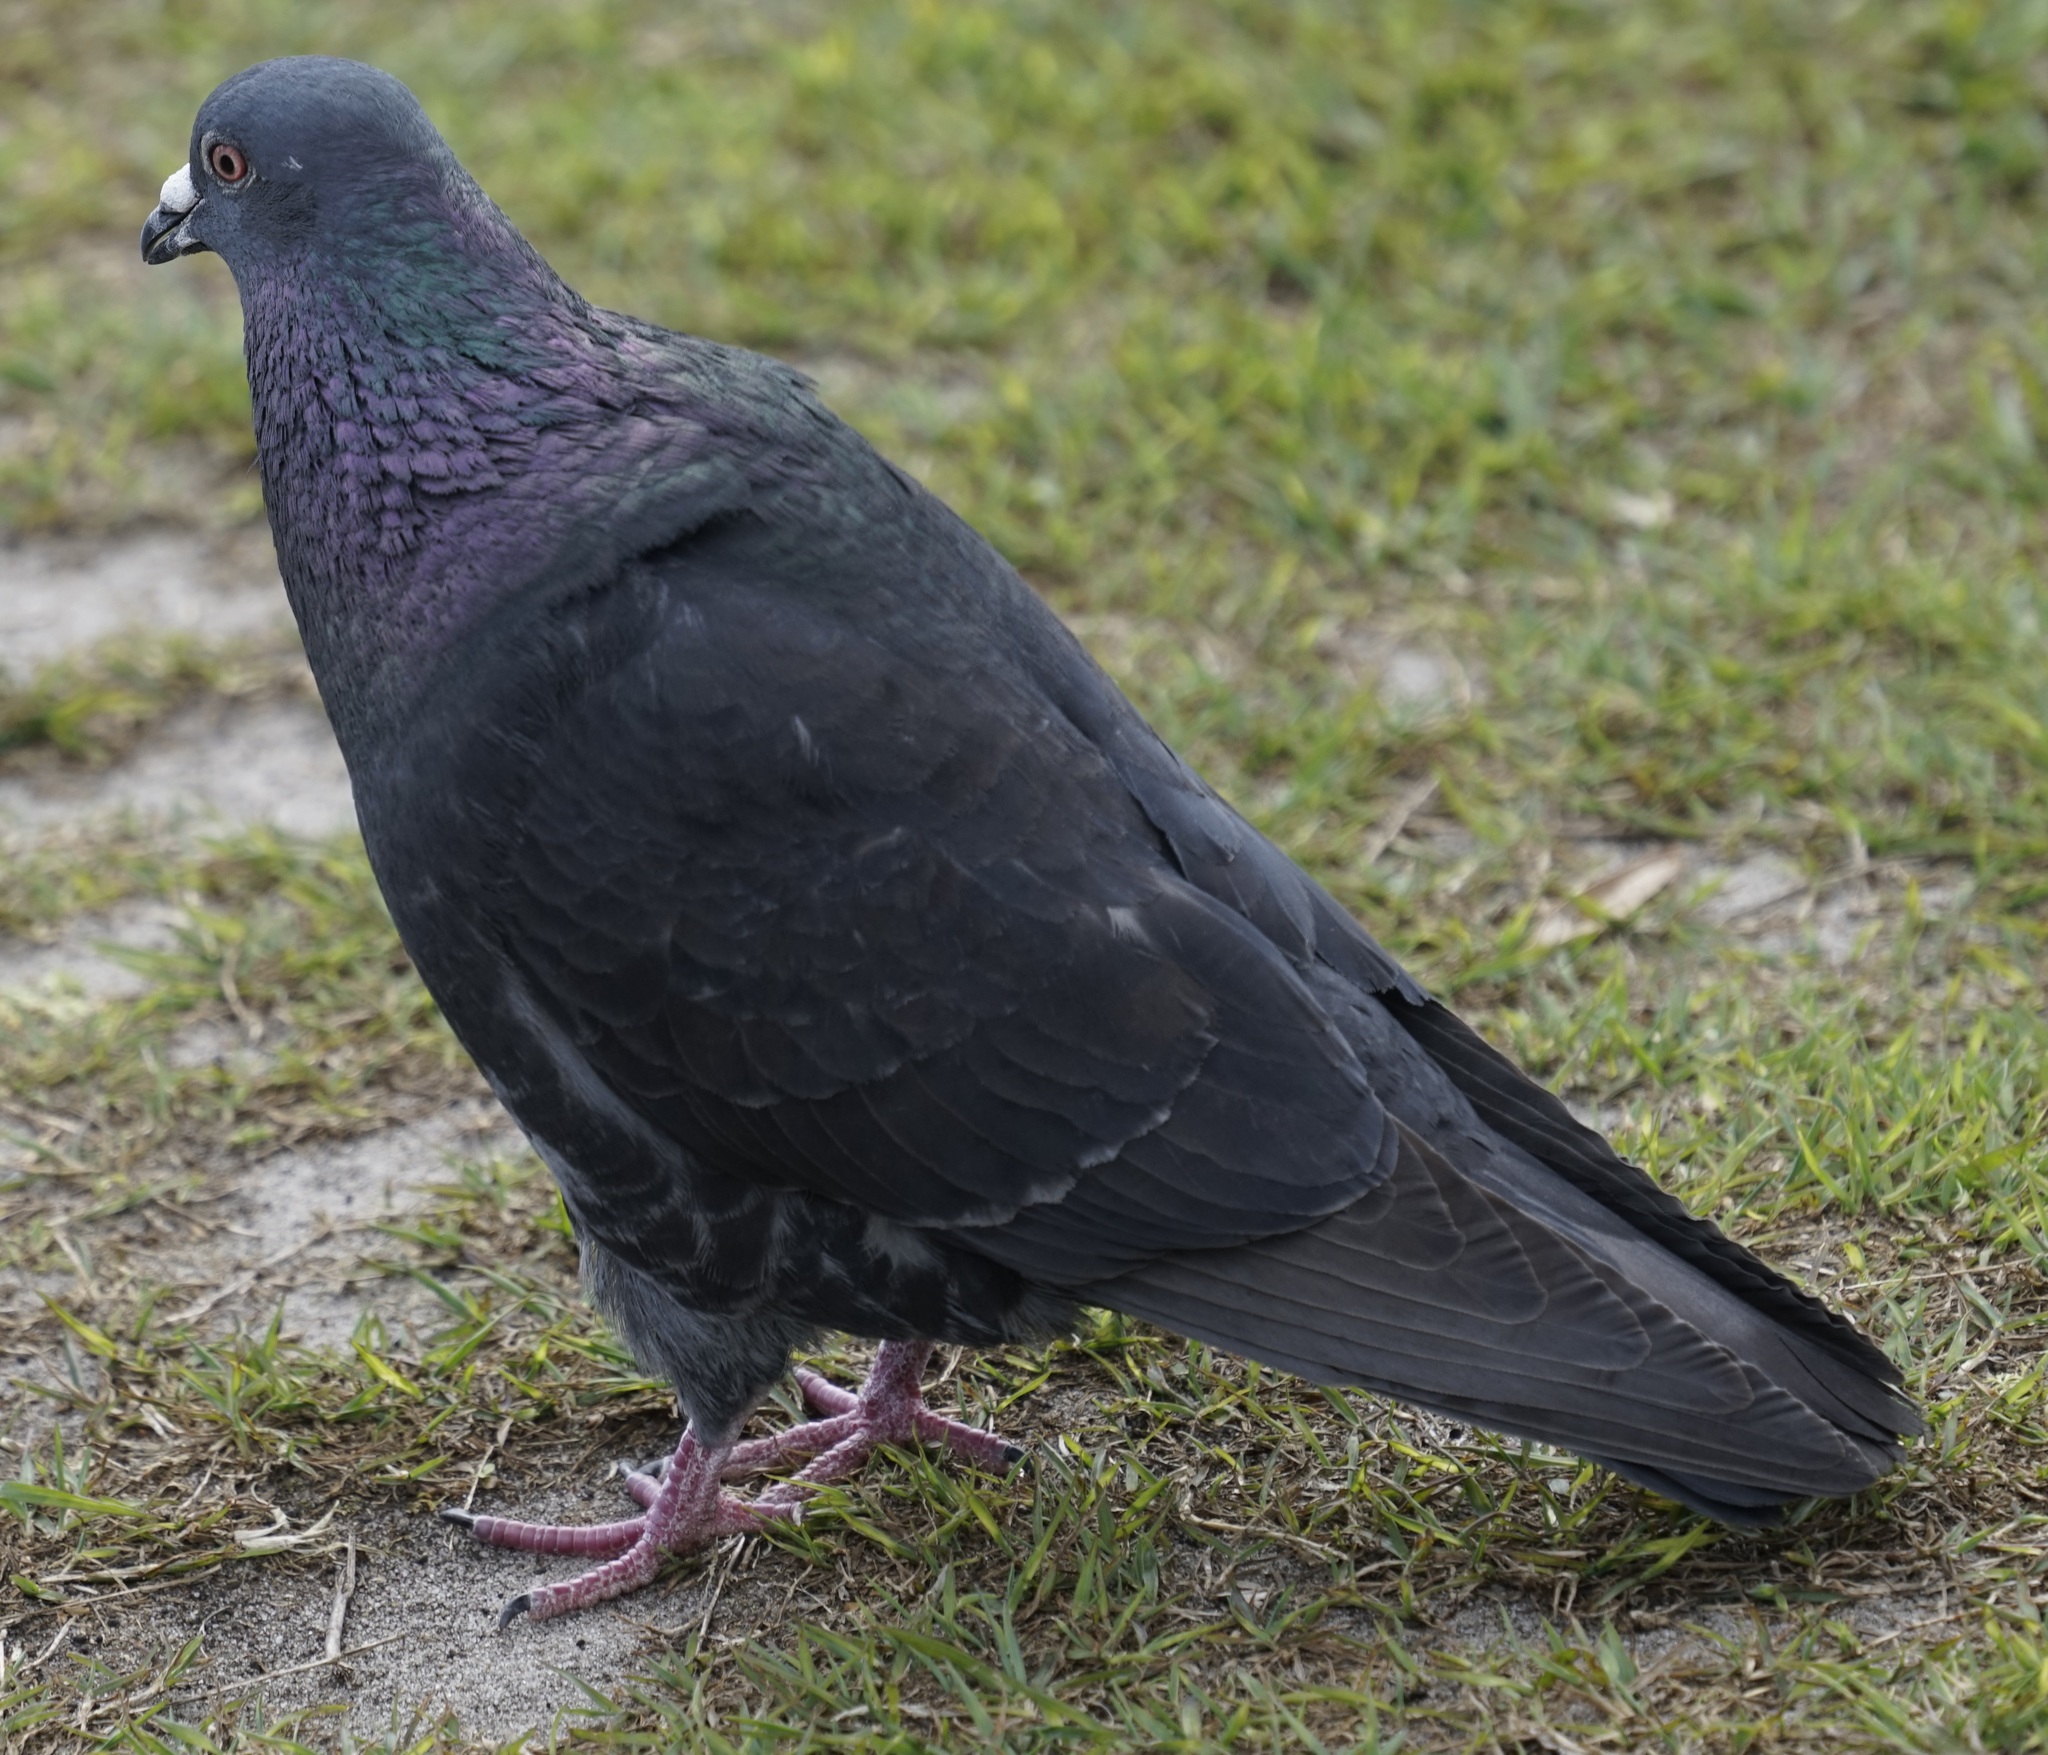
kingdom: Animalia
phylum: Chordata
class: Aves
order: Columbiformes
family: Columbidae
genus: Columba
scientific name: Columba livia
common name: Rock pigeon
